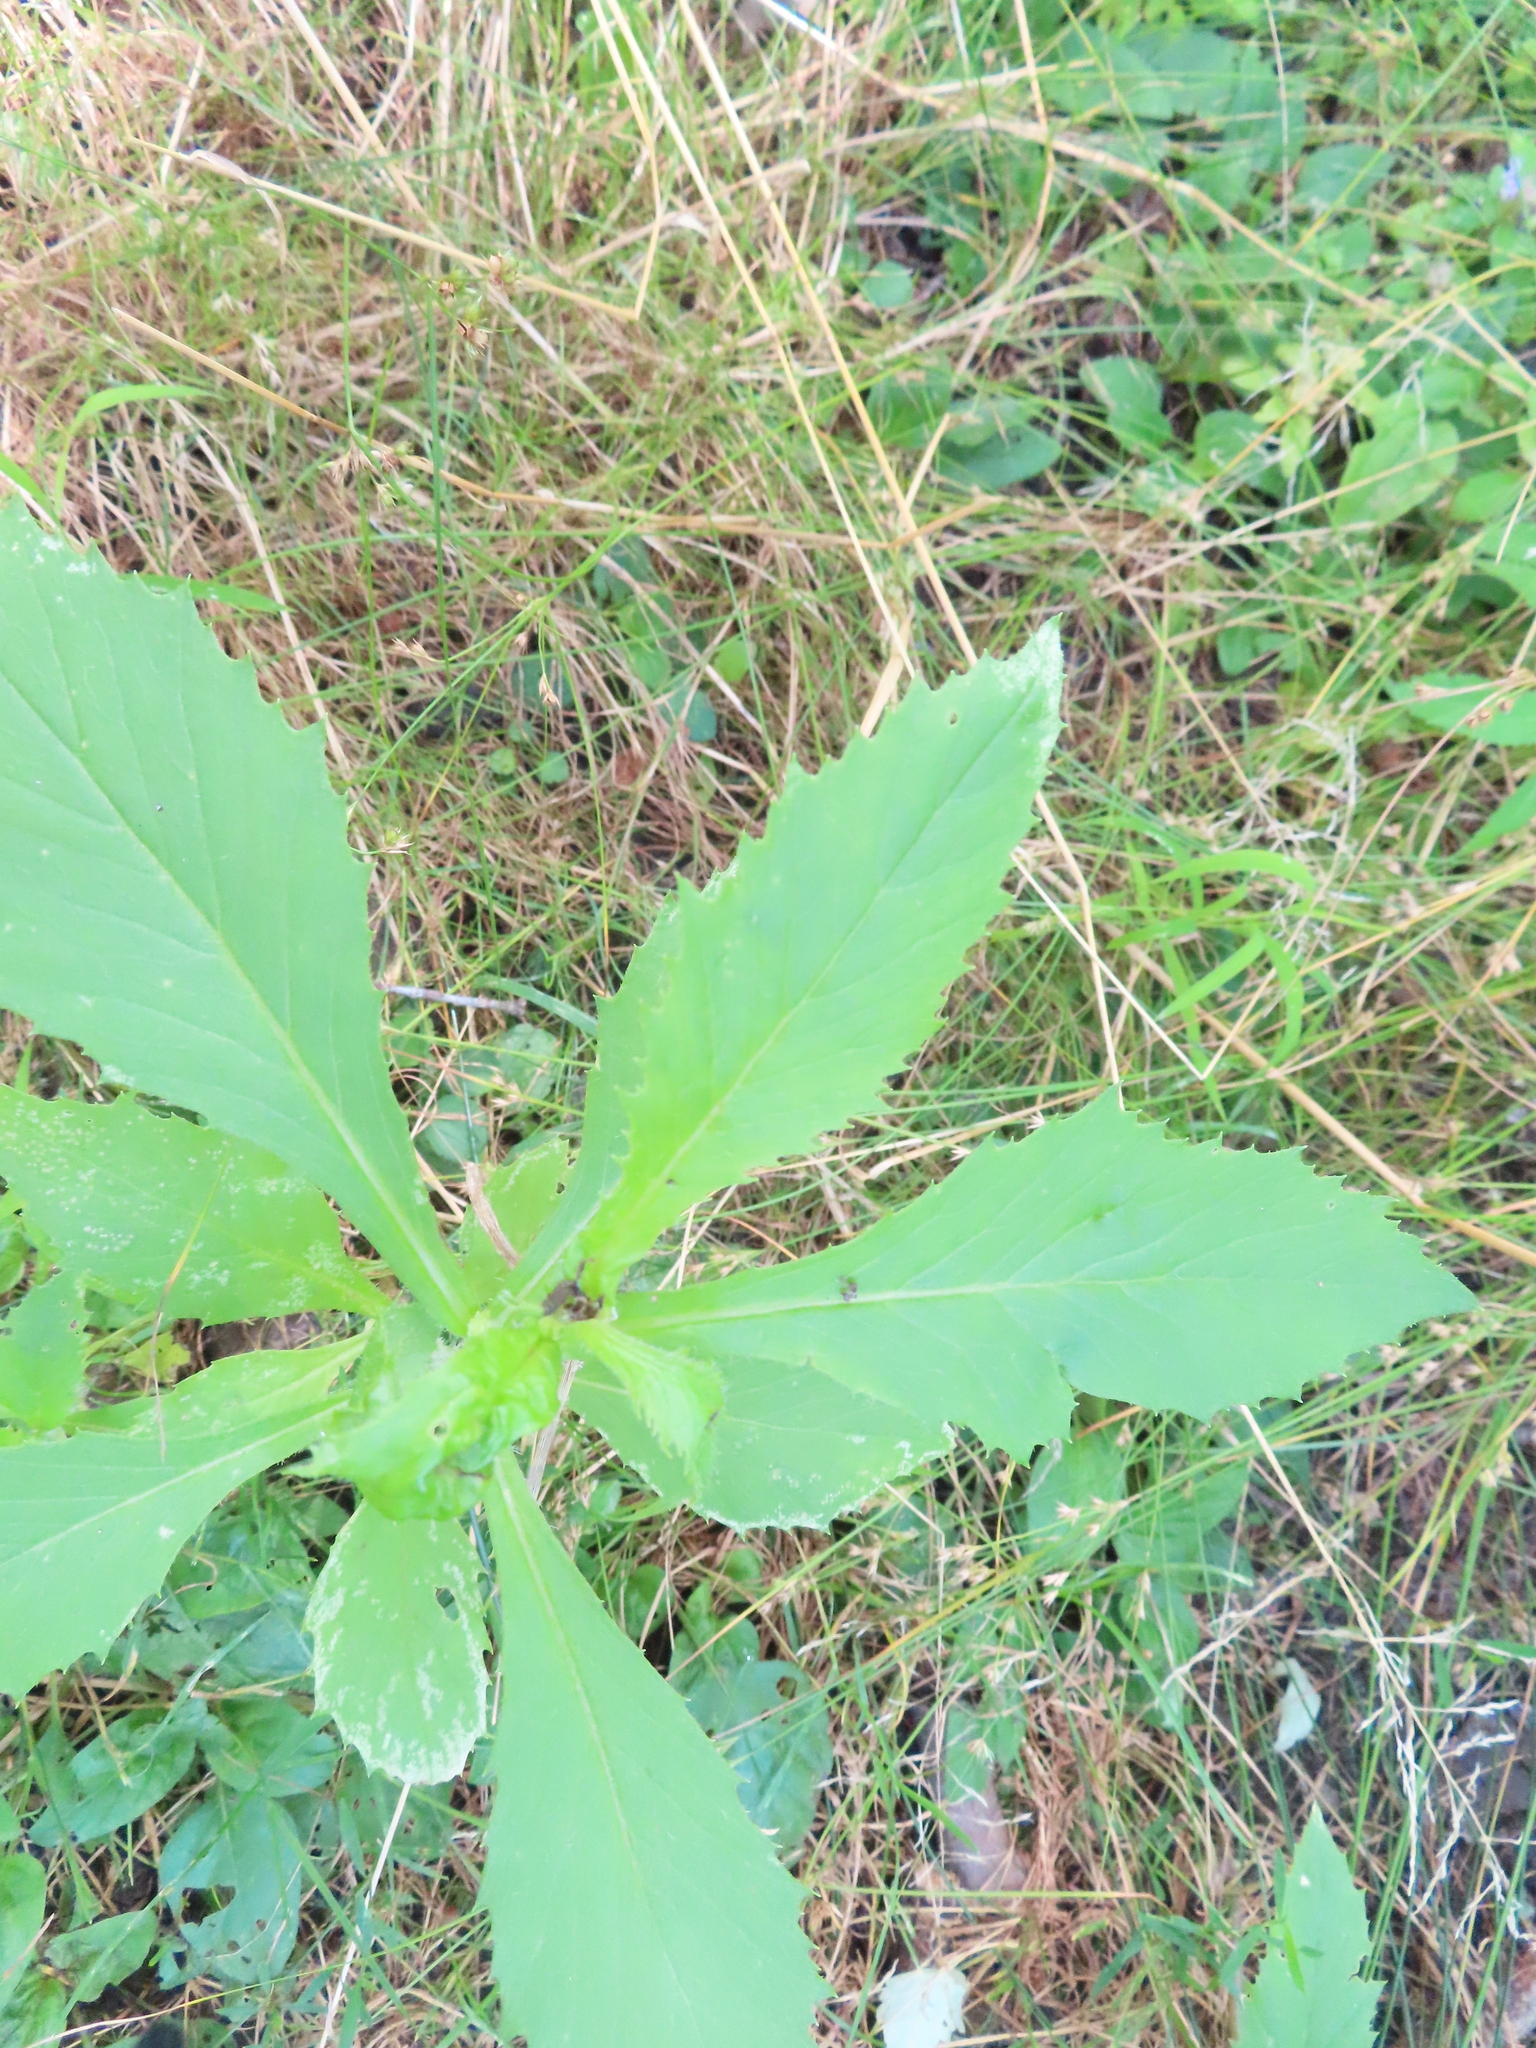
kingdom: Plantae
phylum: Tracheophyta
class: Magnoliopsida
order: Asterales
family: Asteraceae
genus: Erechtites
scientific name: Erechtites hieraciifolius
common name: American burnweed
